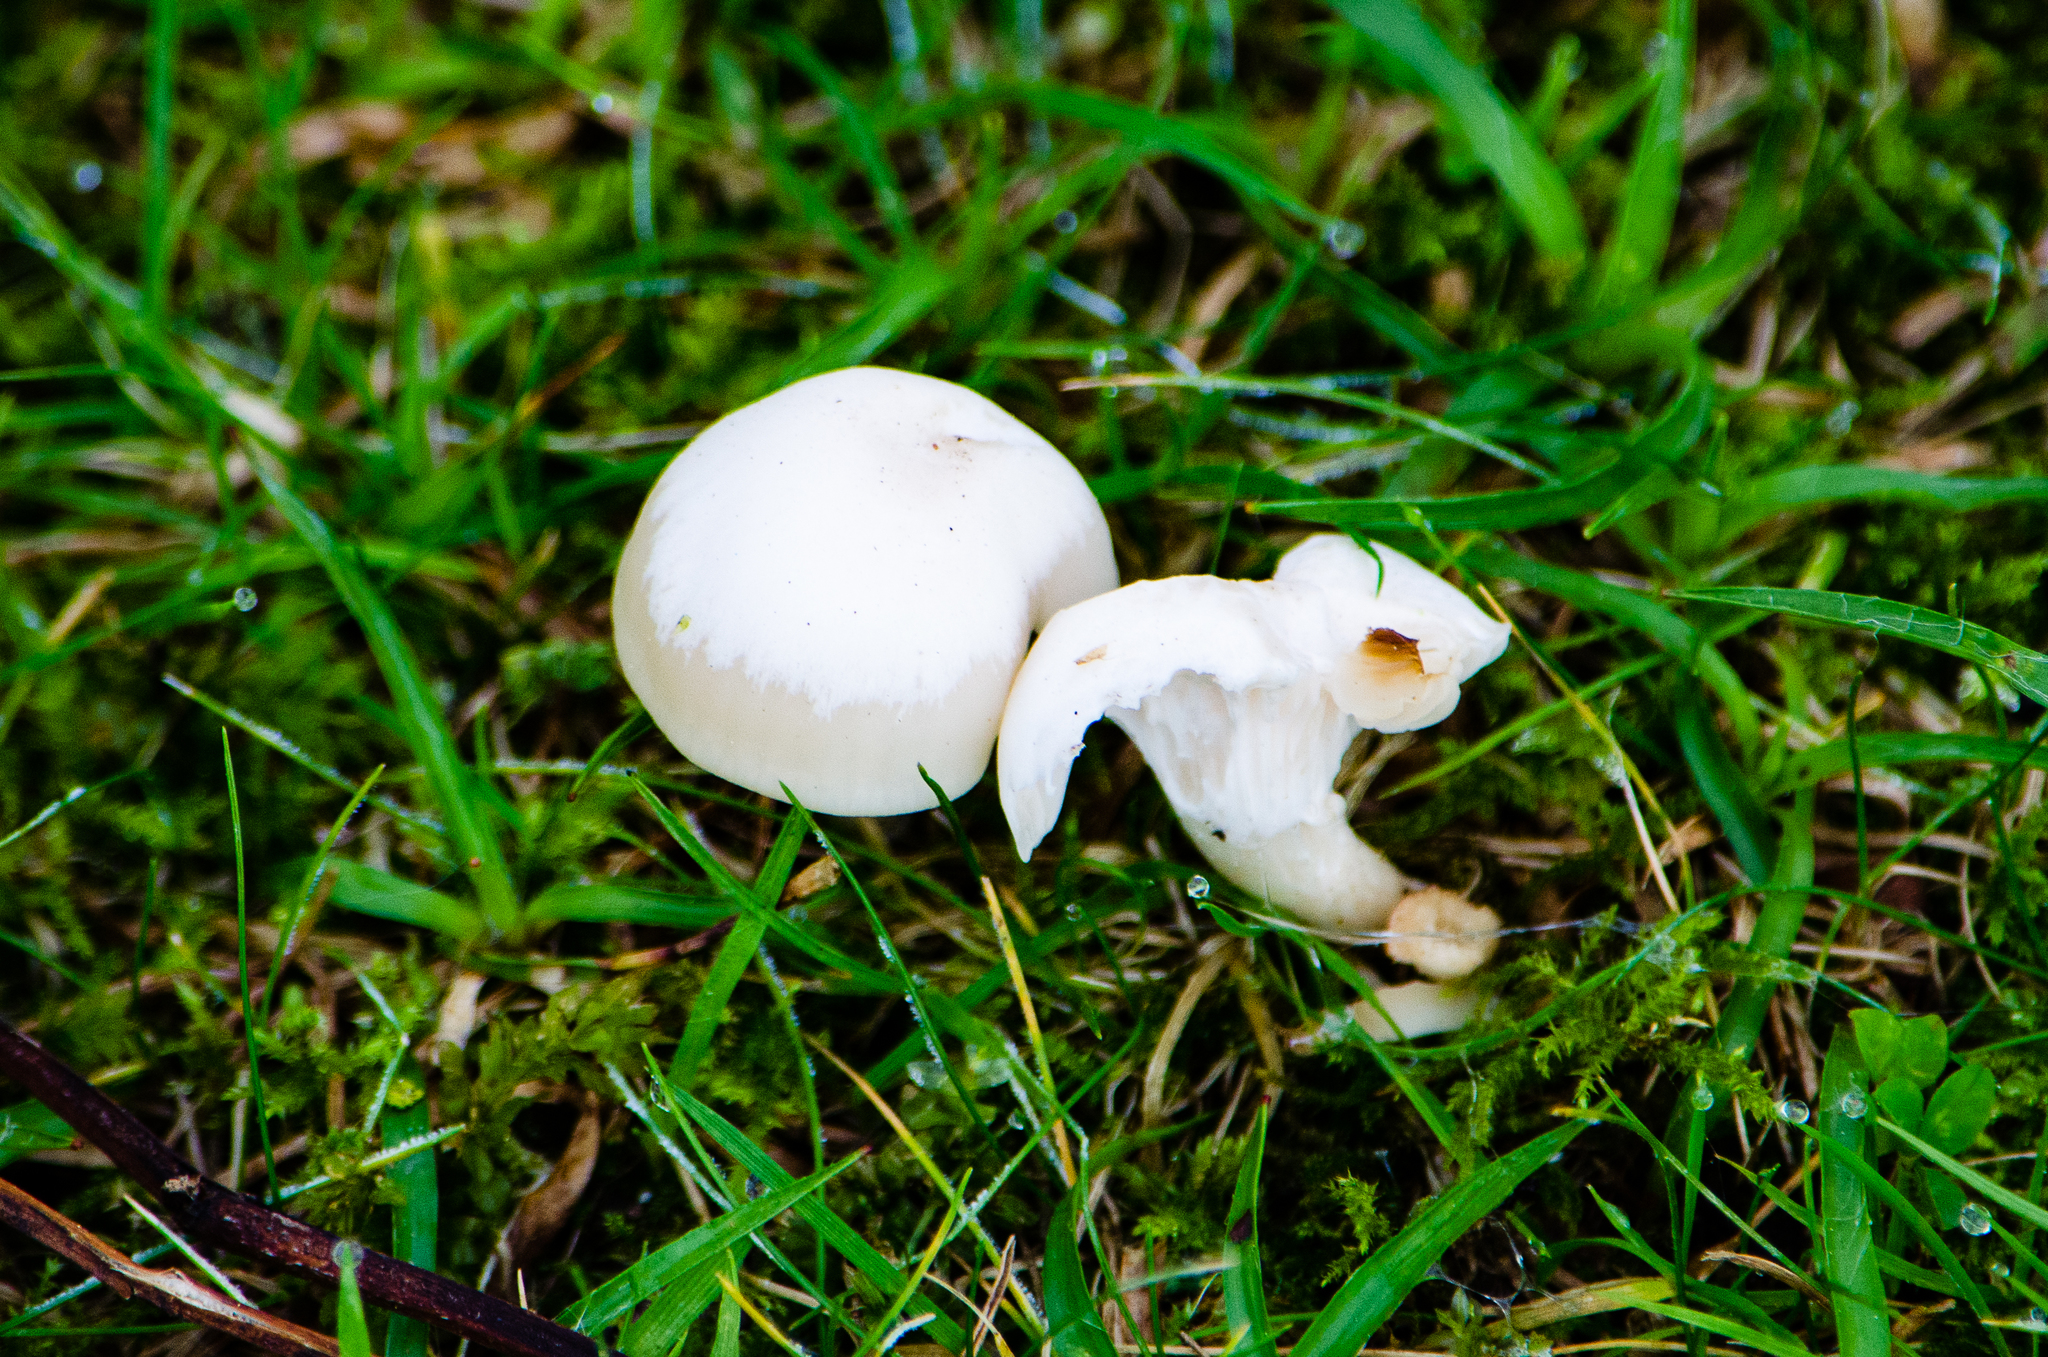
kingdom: Fungi
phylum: Basidiomycota
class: Agaricomycetes
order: Agaricales
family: Hygrophoraceae
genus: Cuphophyllus
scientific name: Cuphophyllus virgineus
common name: Snowy waxcap
